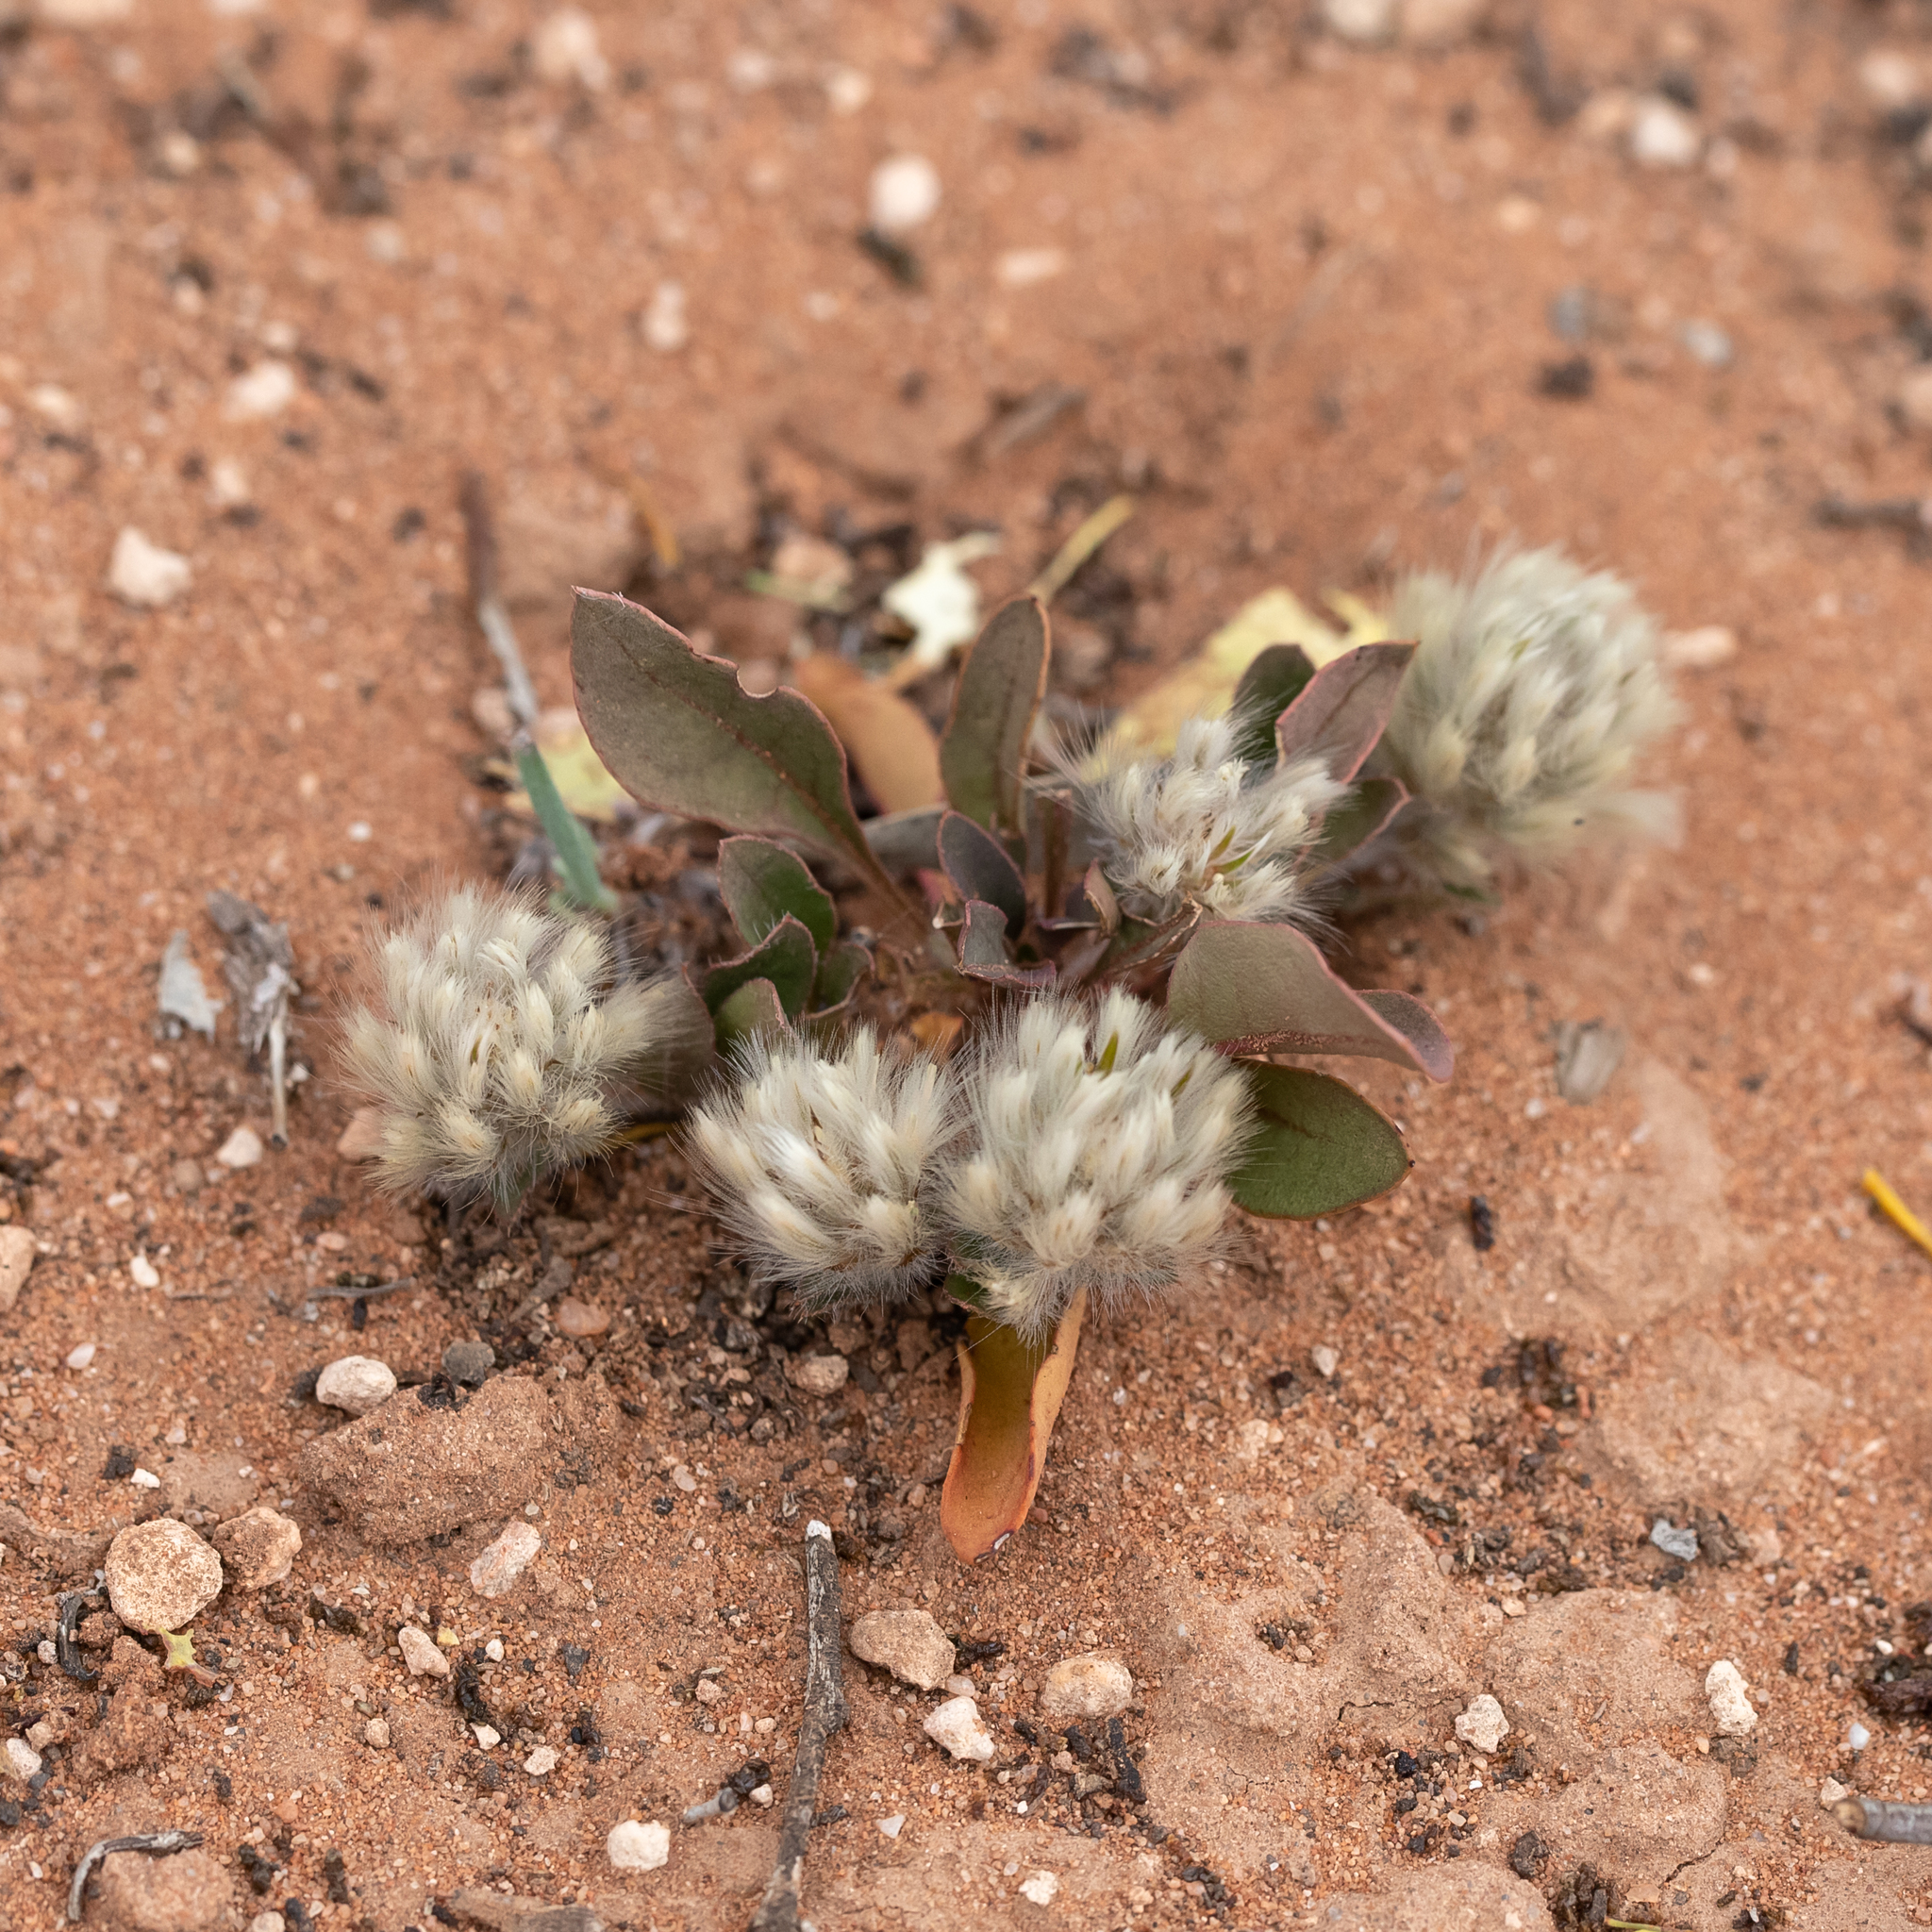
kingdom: Plantae
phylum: Tracheophyta
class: Magnoliopsida
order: Caryophyllales
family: Amaranthaceae
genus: Ptilotus
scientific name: Ptilotus seminudus
